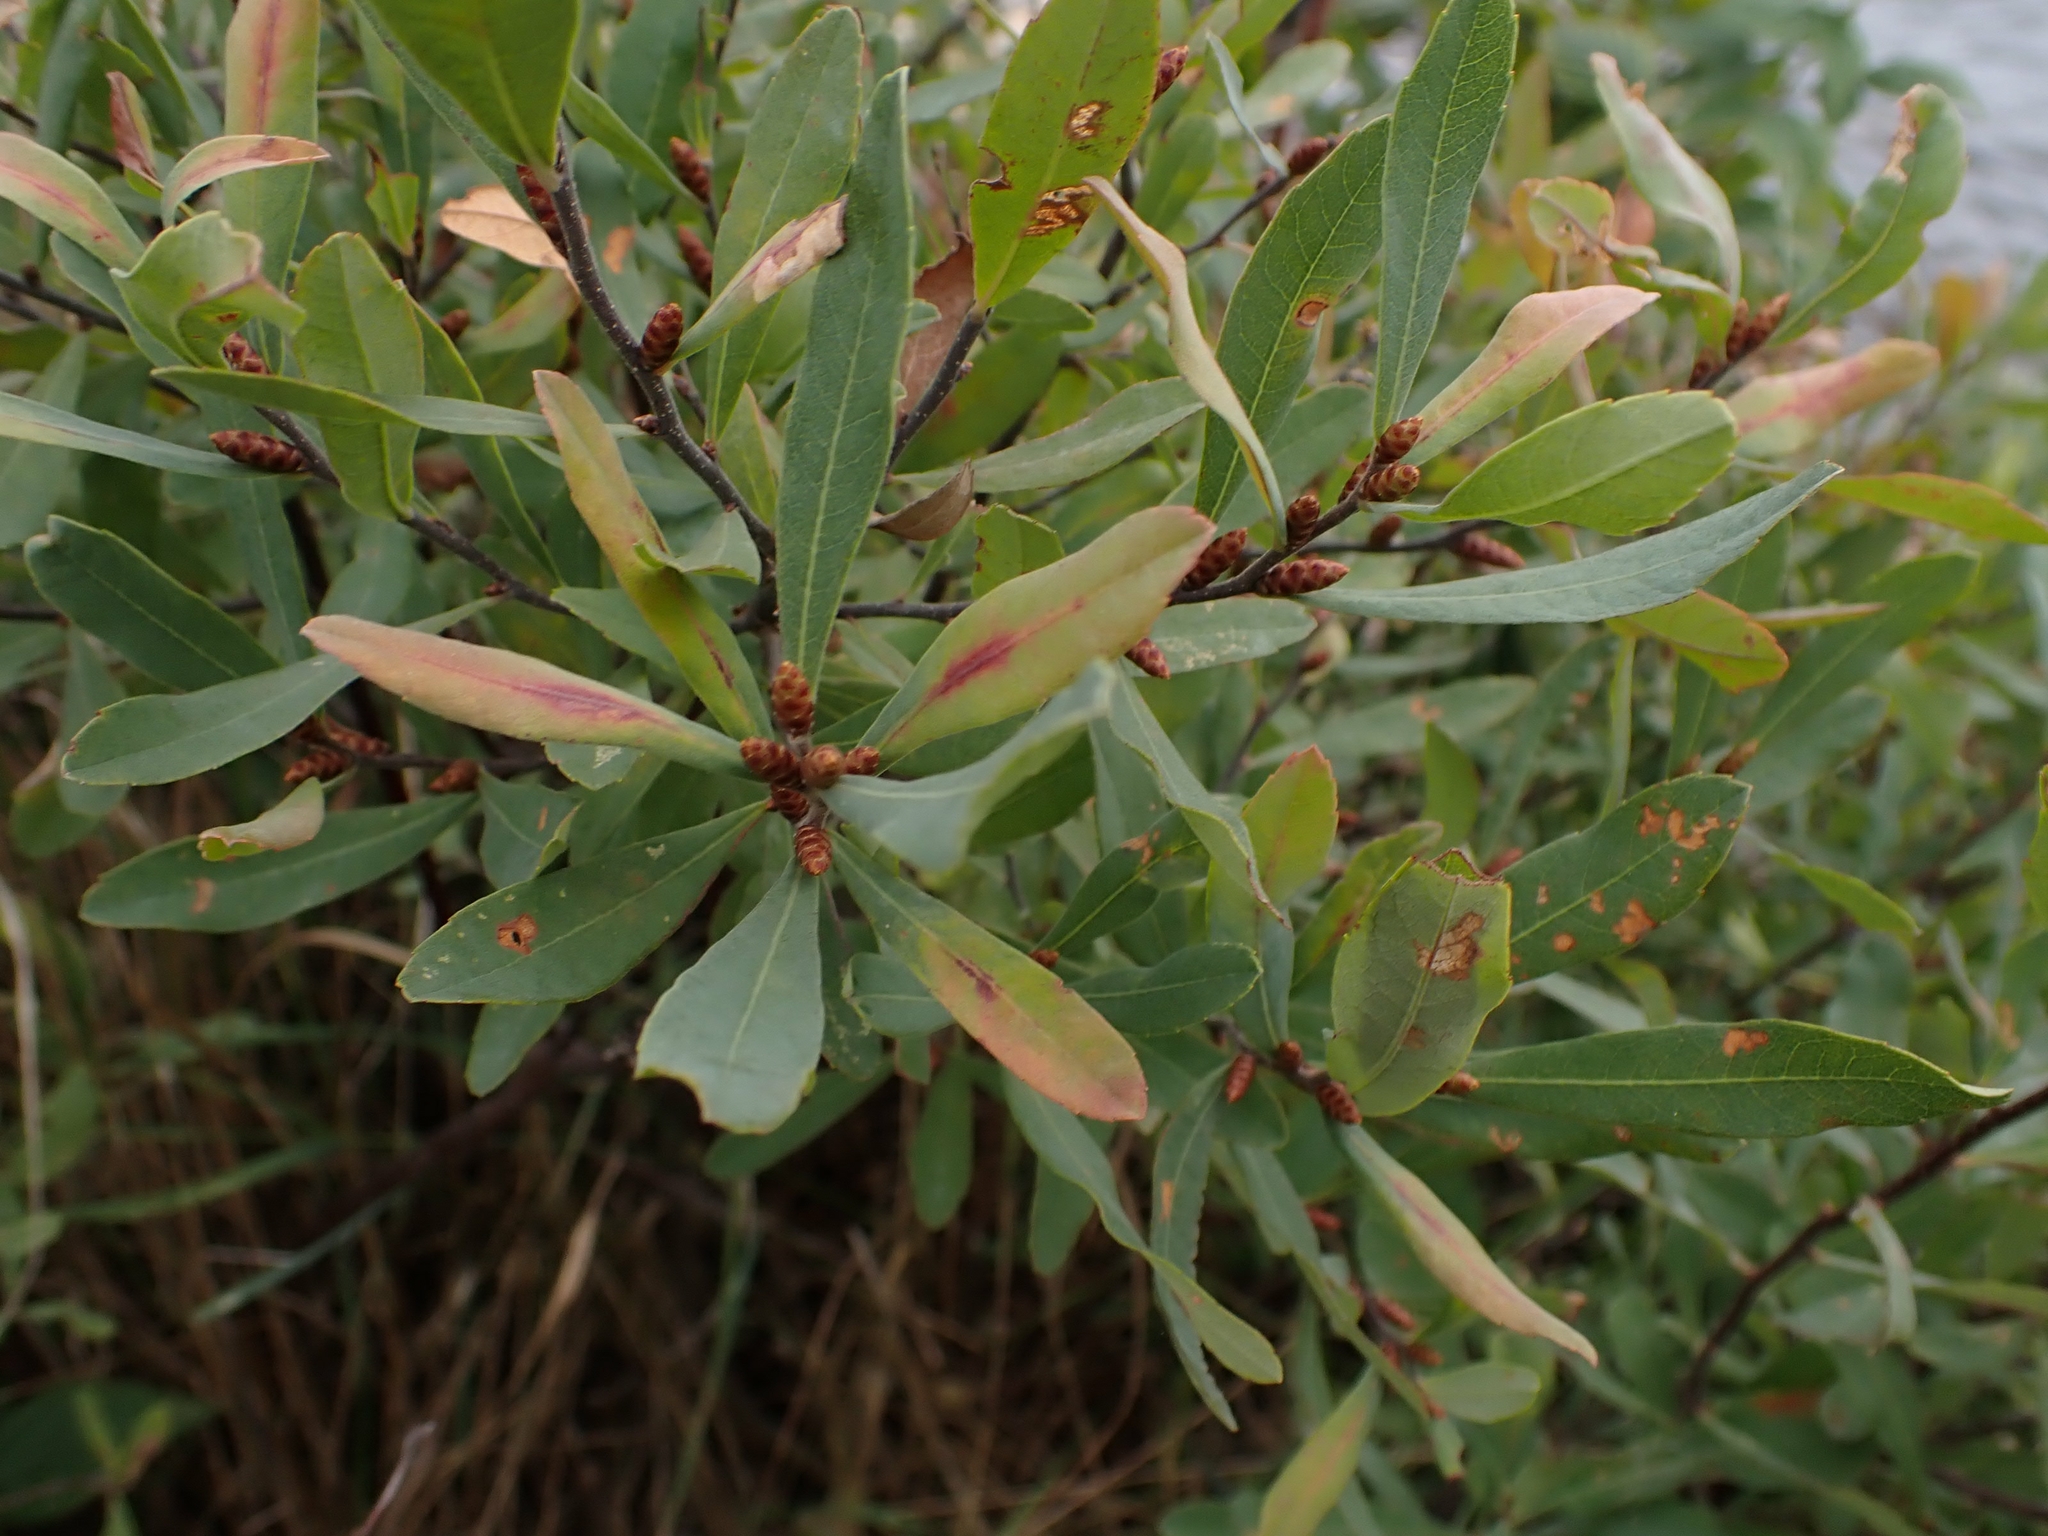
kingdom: Plantae
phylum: Tracheophyta
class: Magnoliopsida
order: Fagales
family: Myricaceae
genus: Myrica
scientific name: Myrica gale
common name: Sweet gale
